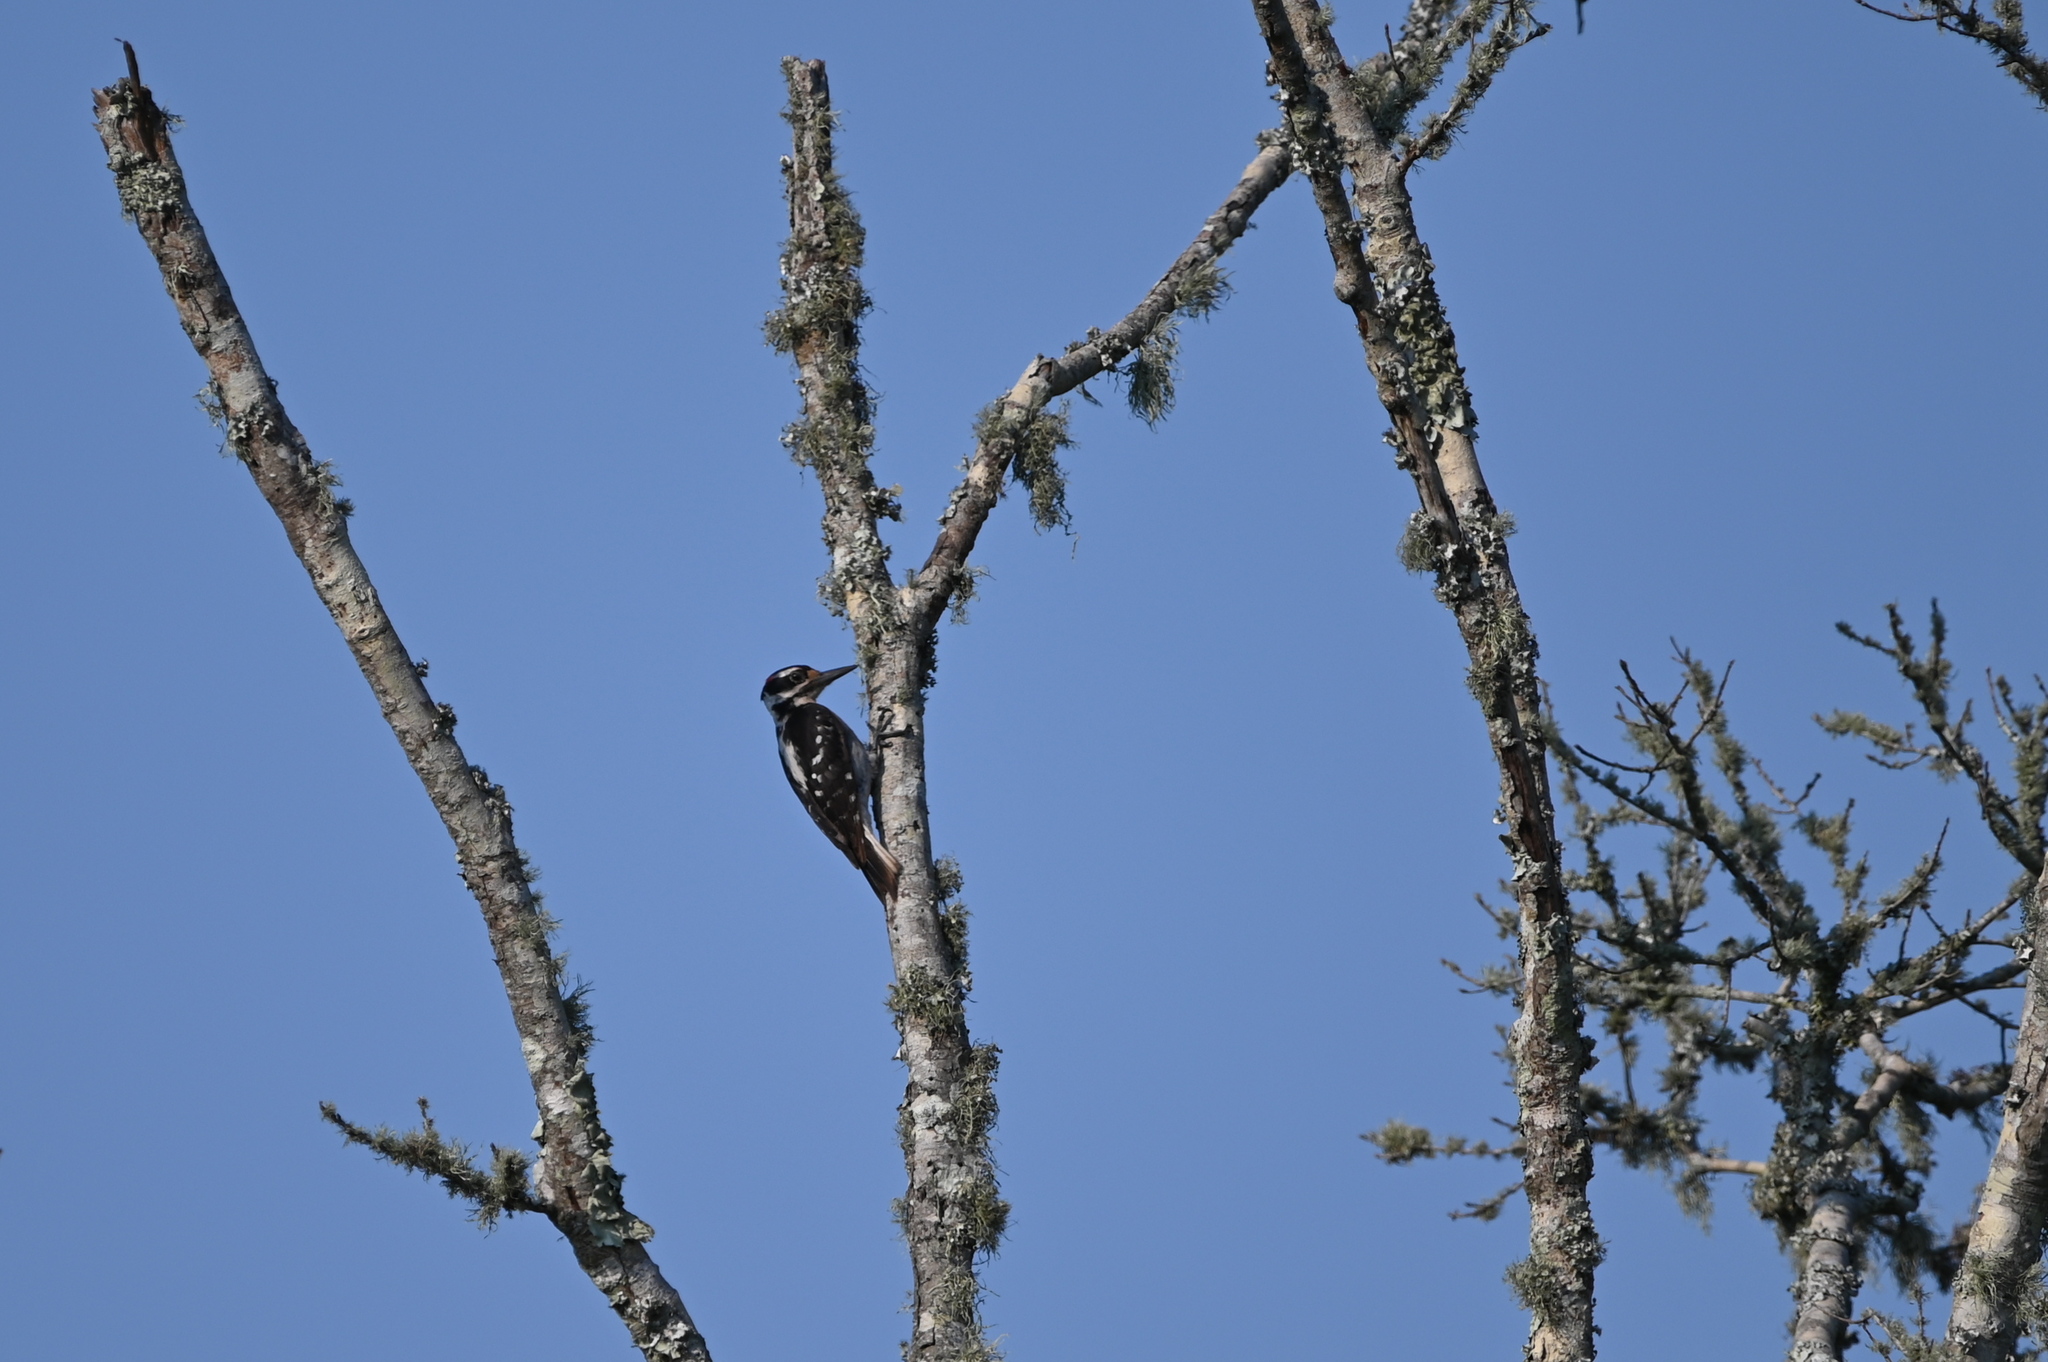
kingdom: Animalia
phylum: Chordata
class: Aves
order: Piciformes
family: Picidae
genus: Leuconotopicus
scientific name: Leuconotopicus villosus
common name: Hairy woodpecker
